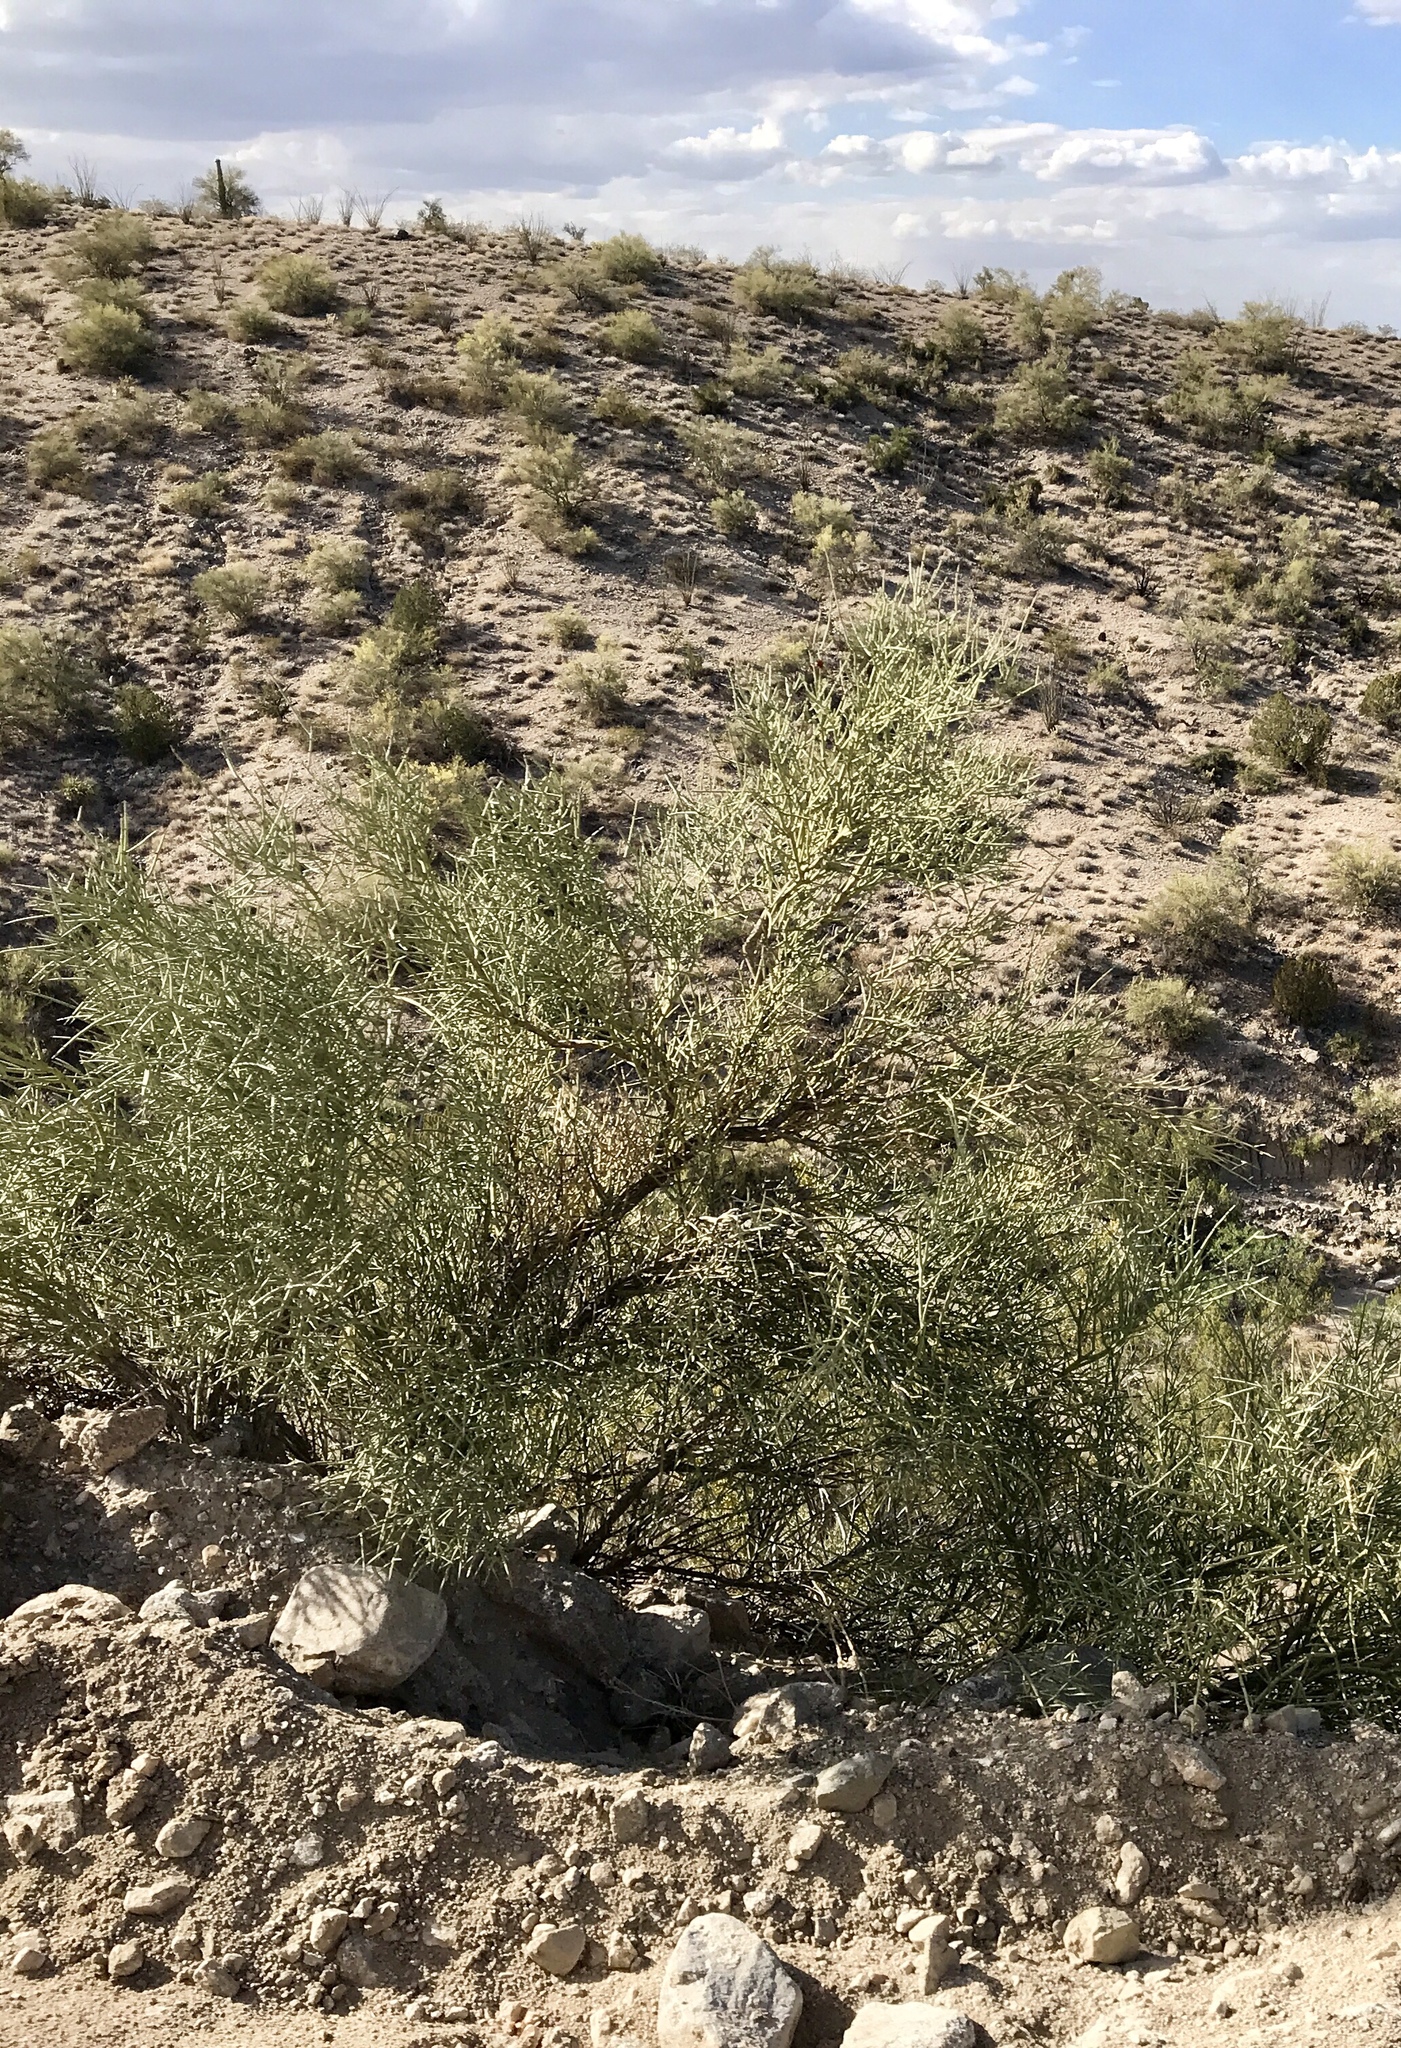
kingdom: Plantae
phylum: Tracheophyta
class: Magnoliopsida
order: Celastrales
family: Celastraceae
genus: Canotia
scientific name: Canotia holacantha
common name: Crucifixion thorns
